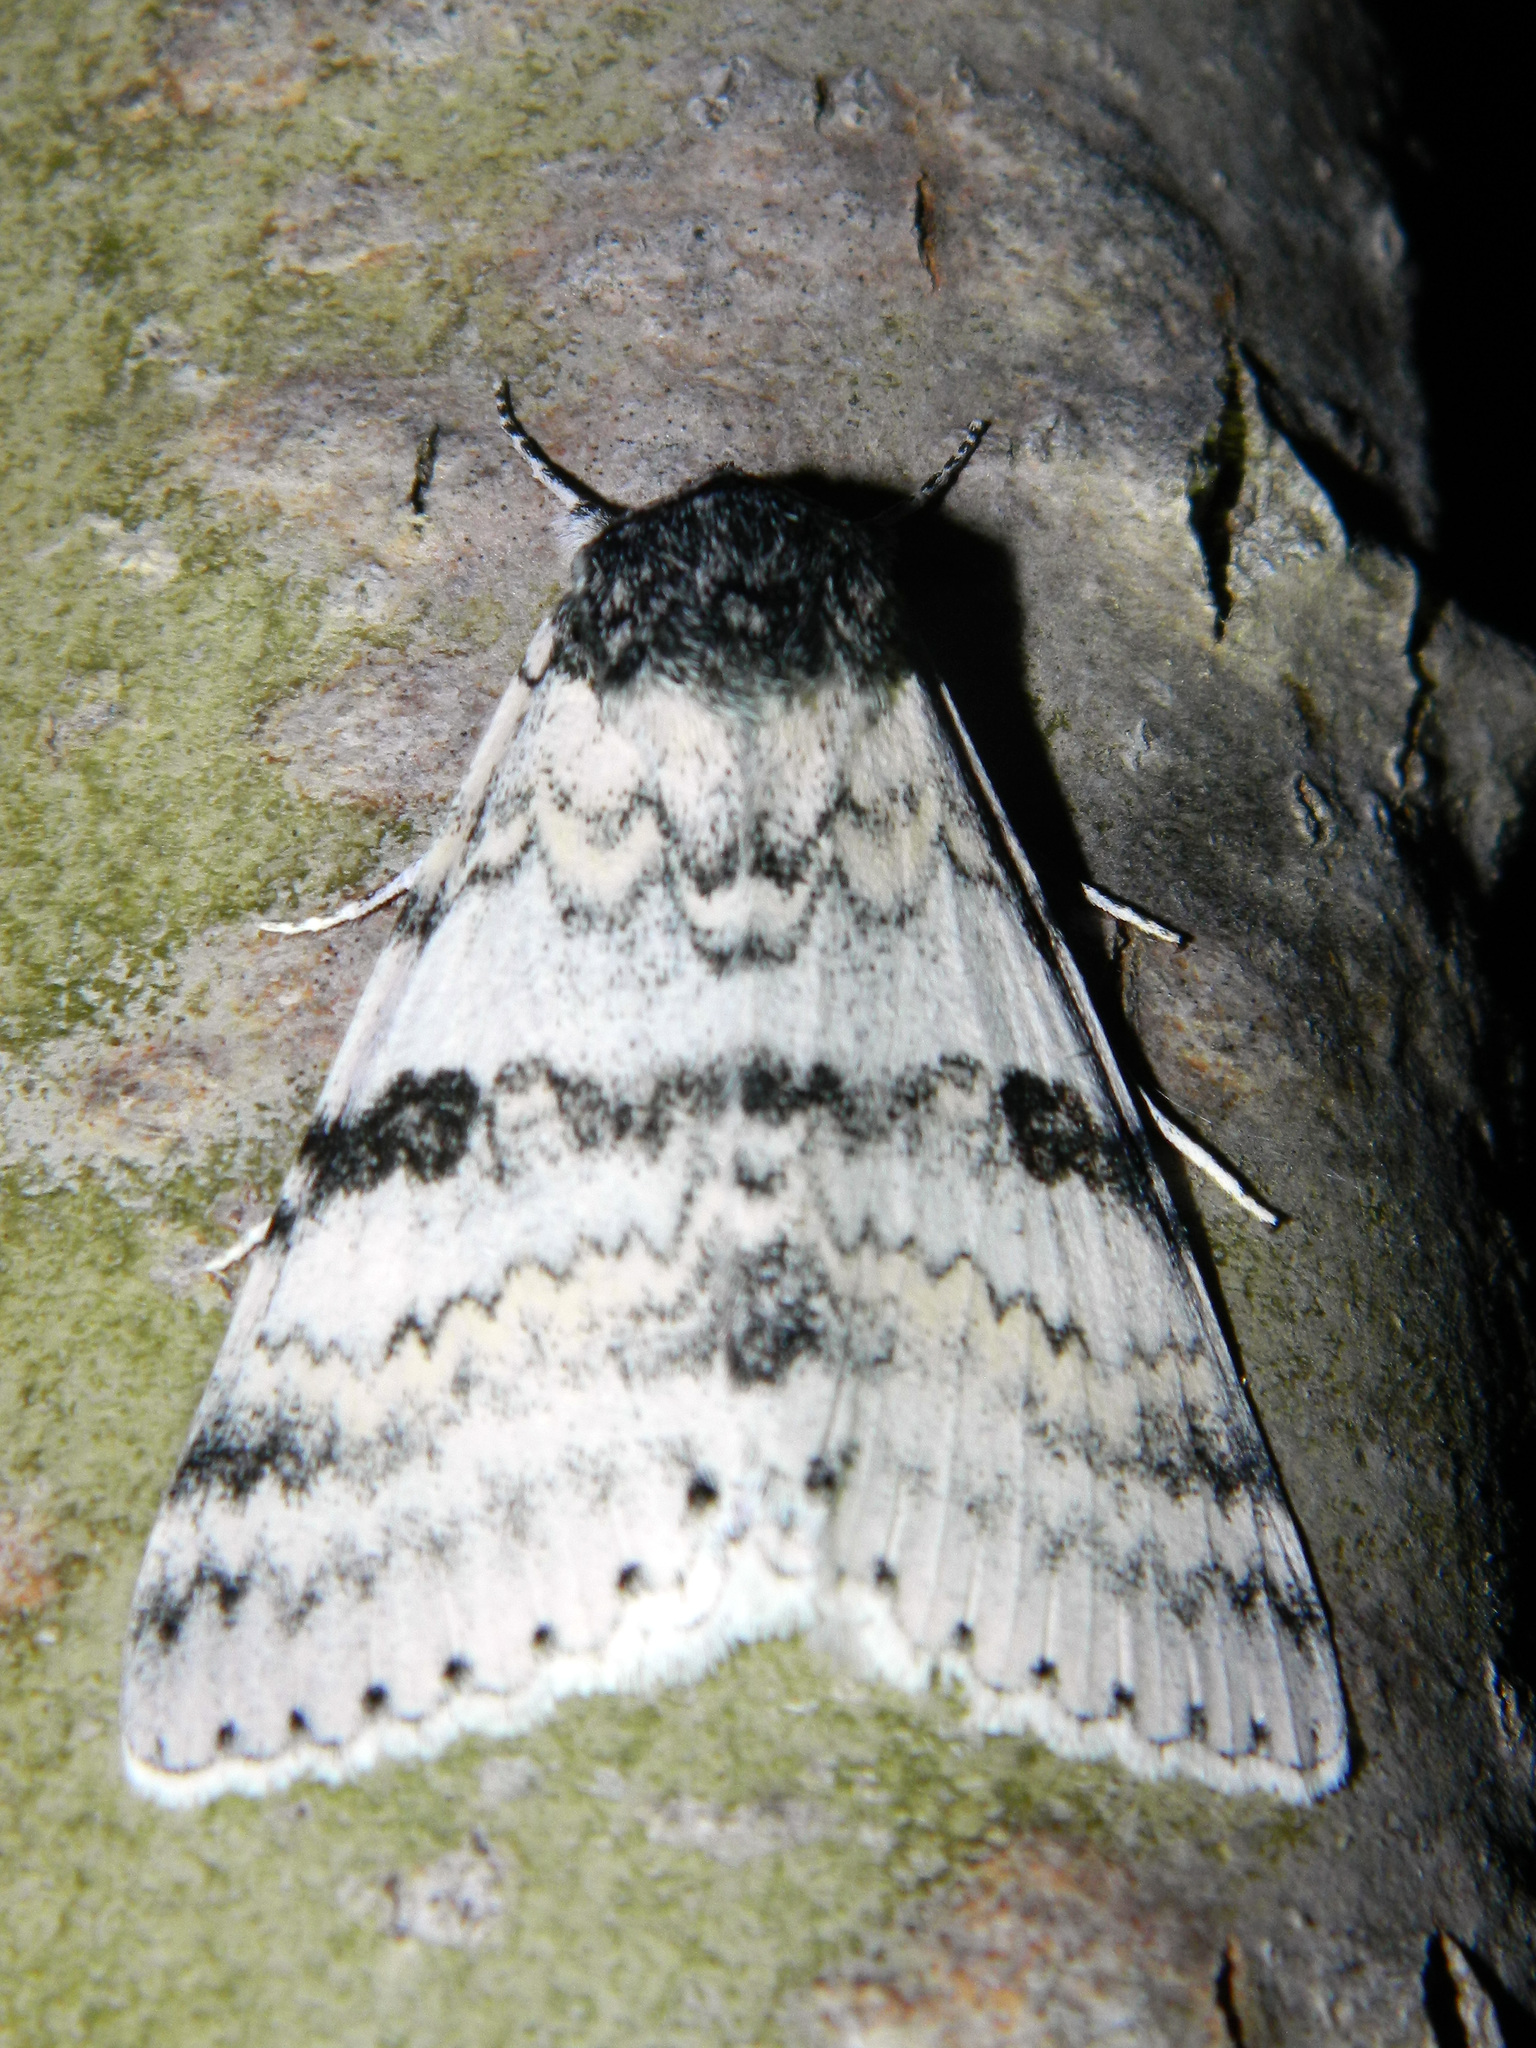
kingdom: Animalia
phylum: Arthropoda
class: Insecta
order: Lepidoptera
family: Erebidae
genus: Catocala
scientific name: Catocala relicta
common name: White underwing
